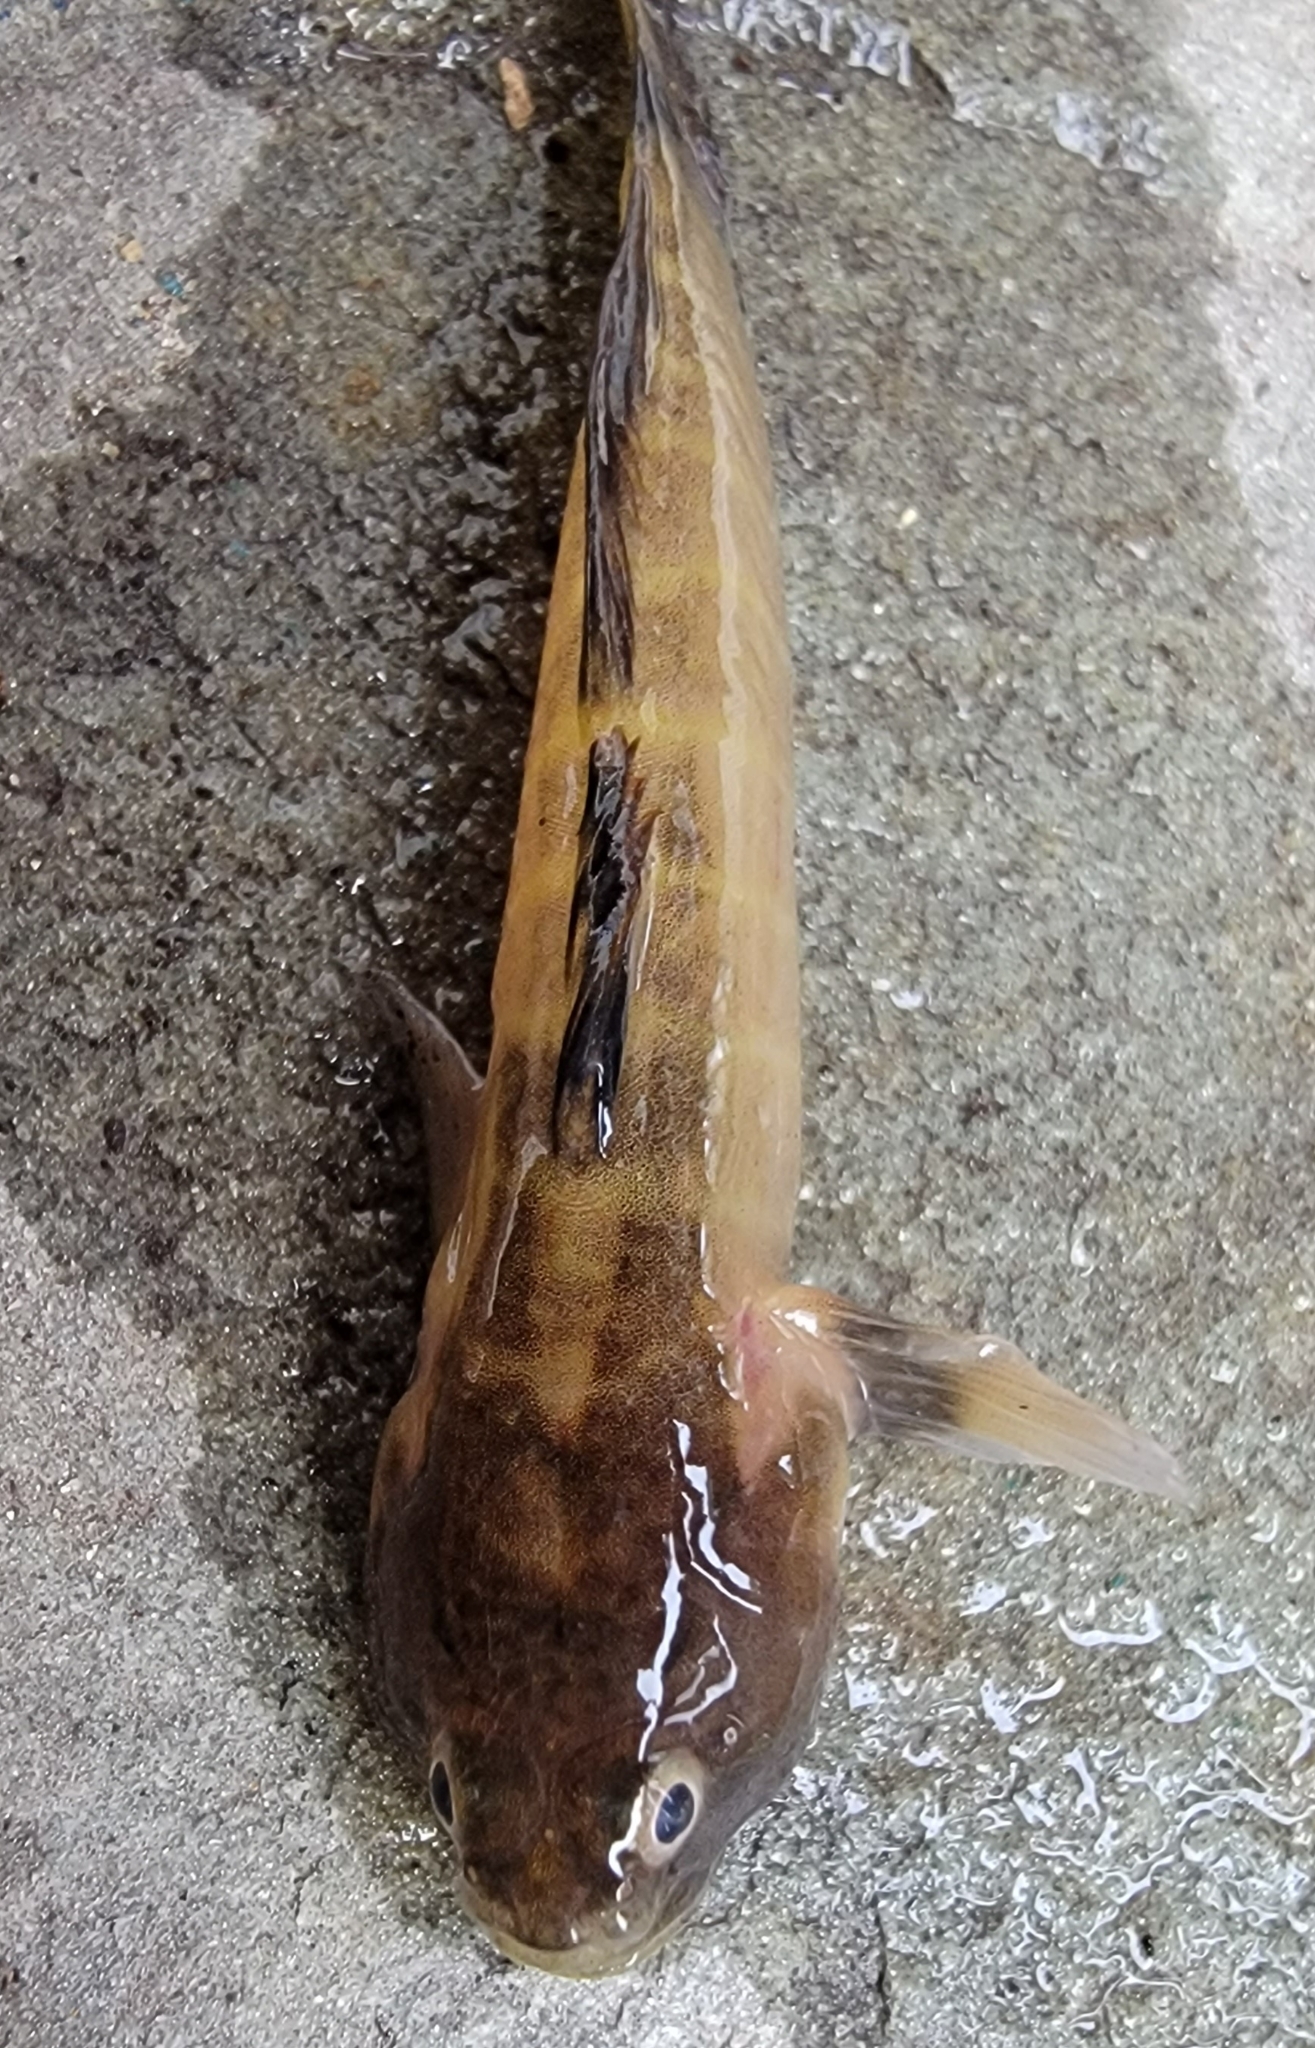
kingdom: Animalia
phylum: Chordata
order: Perciformes
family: Gobiidae
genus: Gobiosoma
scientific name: Gobiosoma bosc
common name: Naked goby
